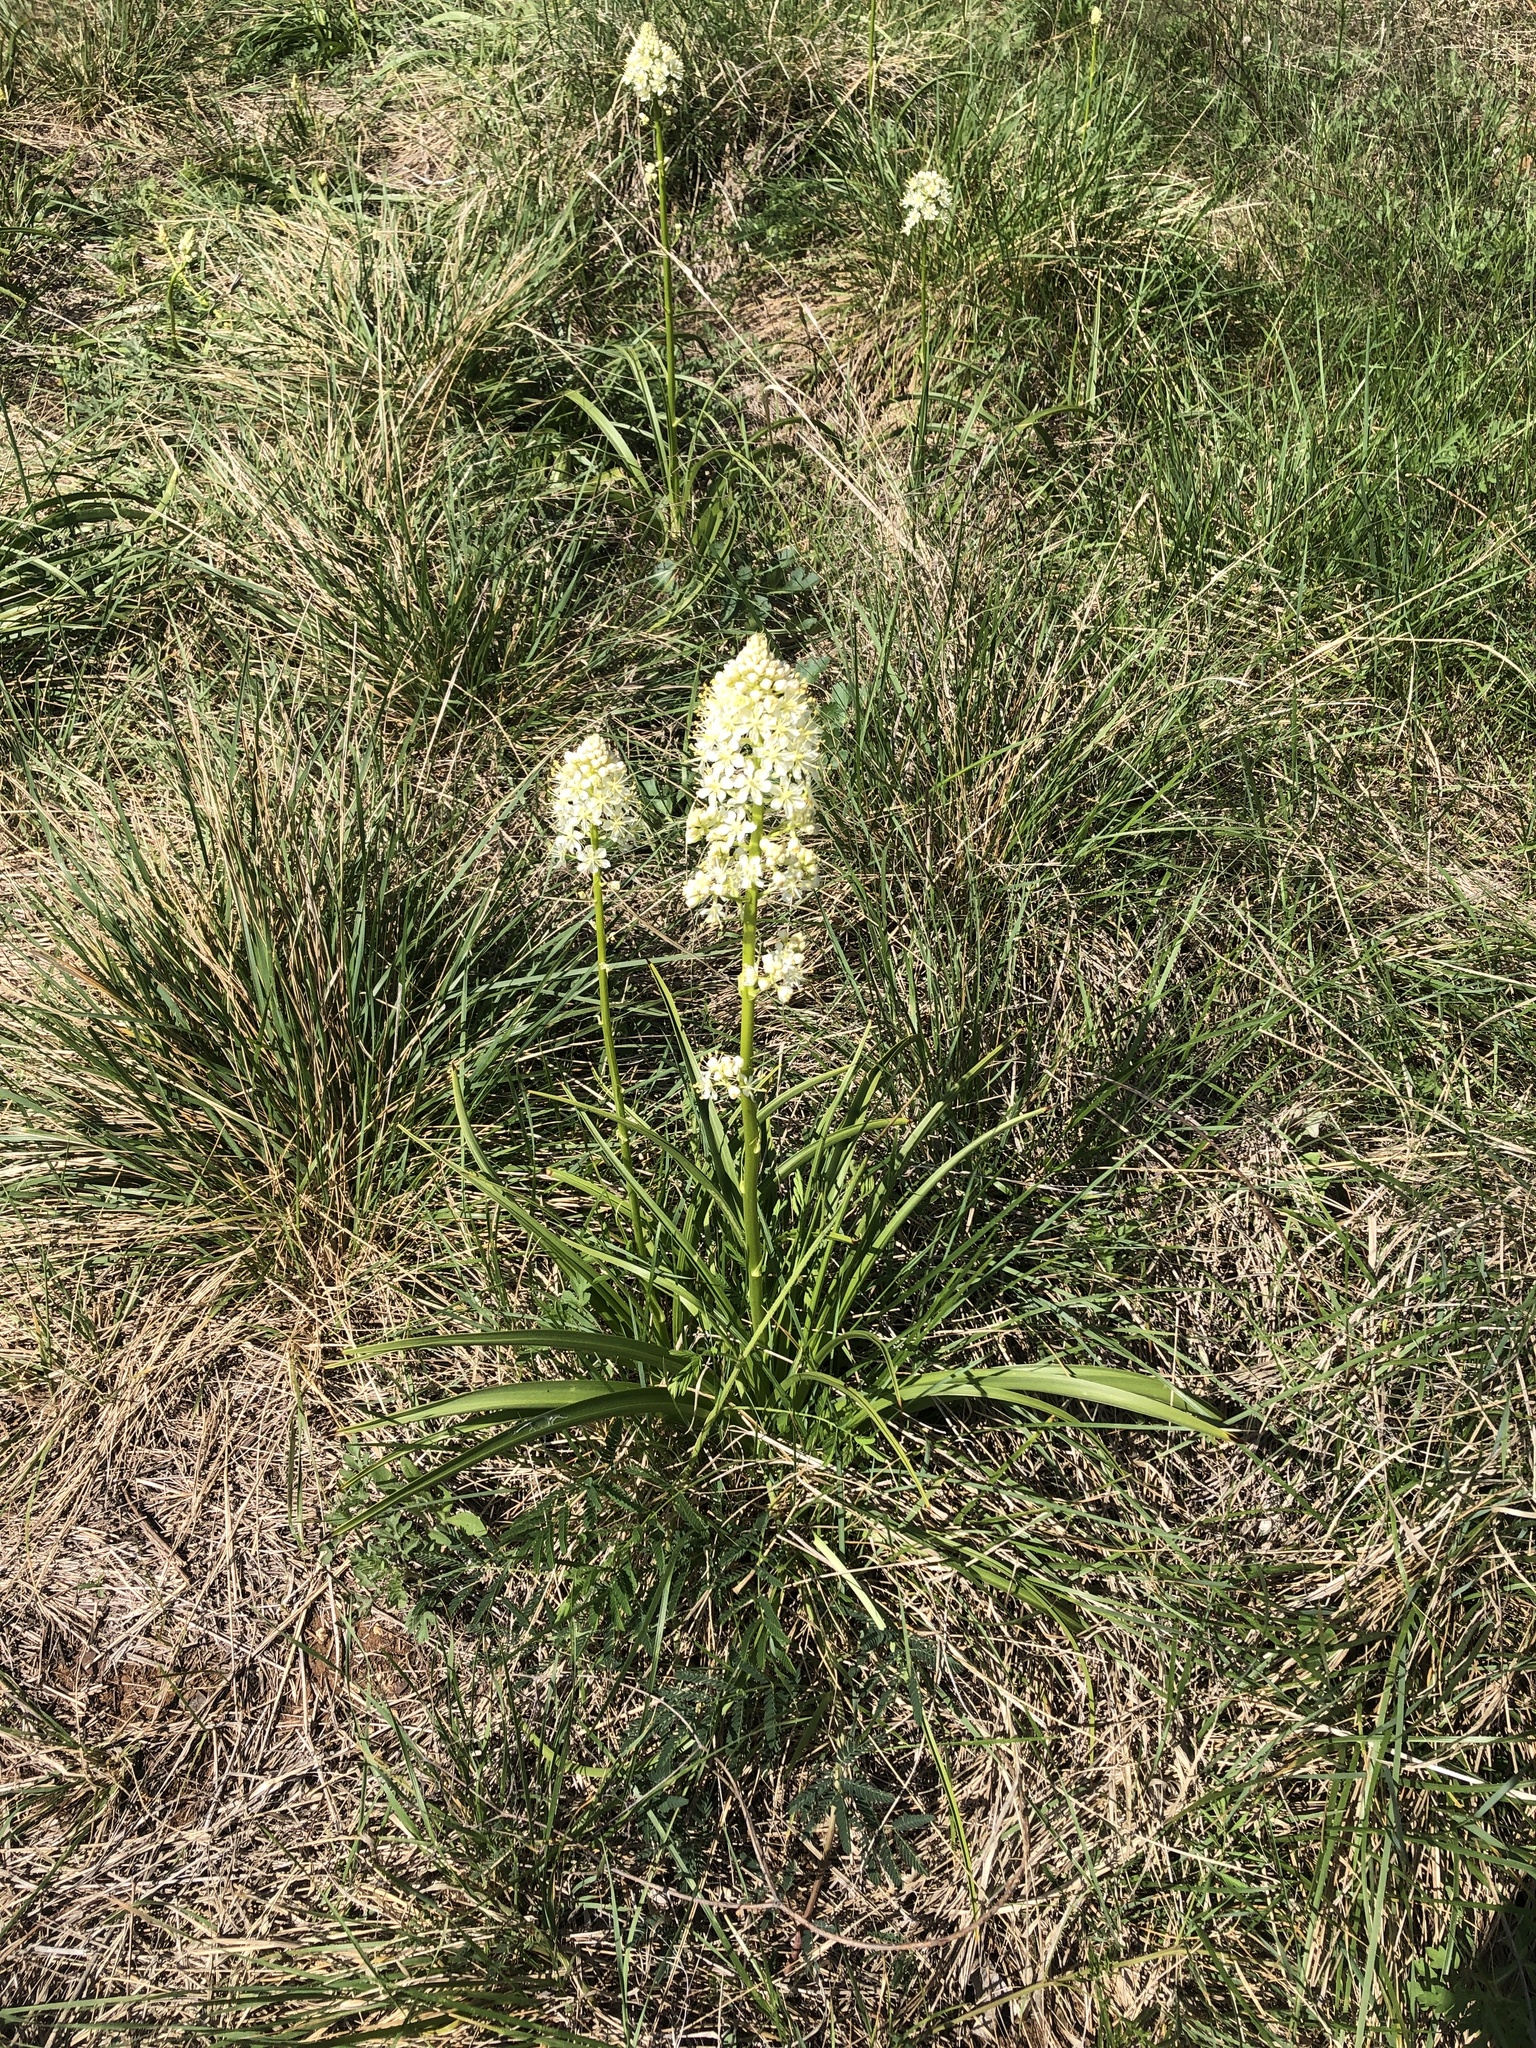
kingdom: Plantae
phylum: Tracheophyta
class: Liliopsida
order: Liliales
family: Melanthiaceae
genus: Toxicoscordion
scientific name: Toxicoscordion nuttallii
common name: Poison sego
